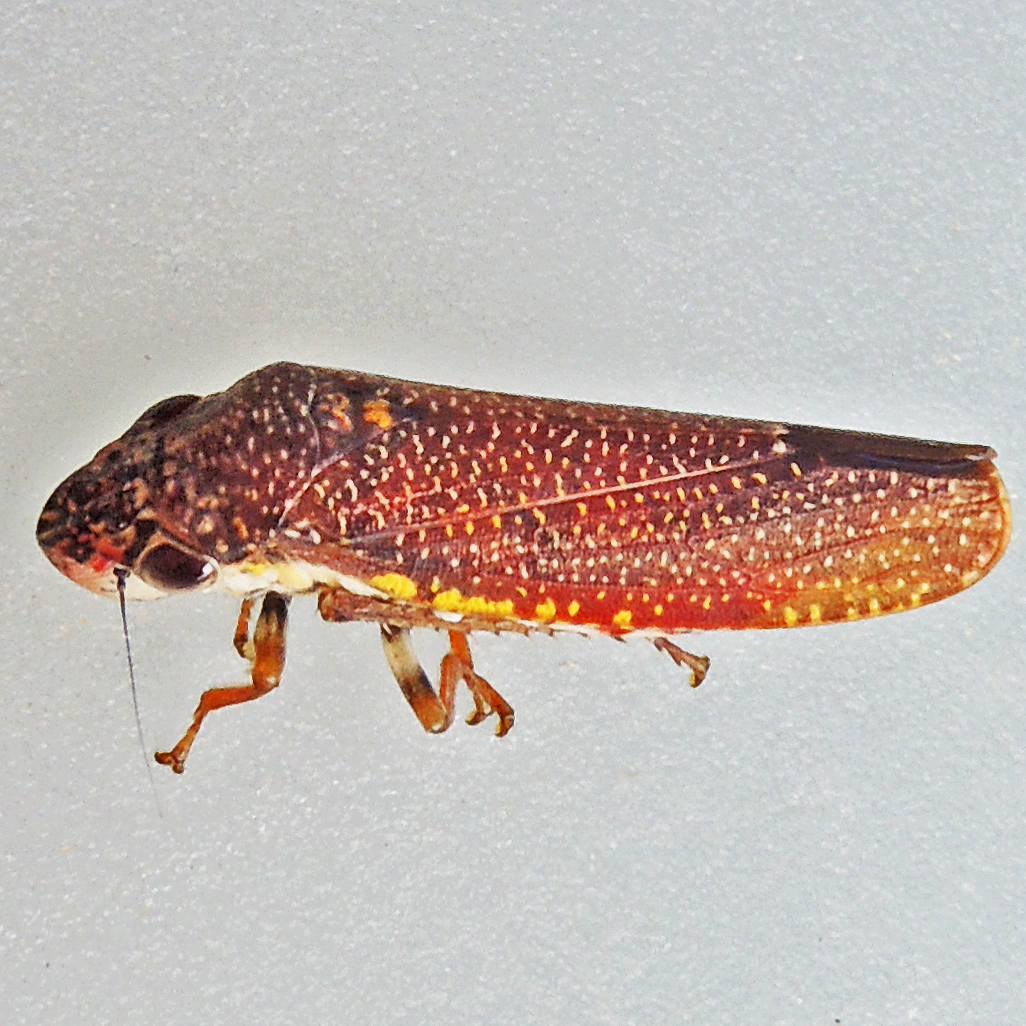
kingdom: Animalia
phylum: Arthropoda
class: Insecta
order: Hemiptera
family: Cicadellidae
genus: Paraulacizes
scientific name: Paraulacizes irrorata
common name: Speckled sharpshooter
